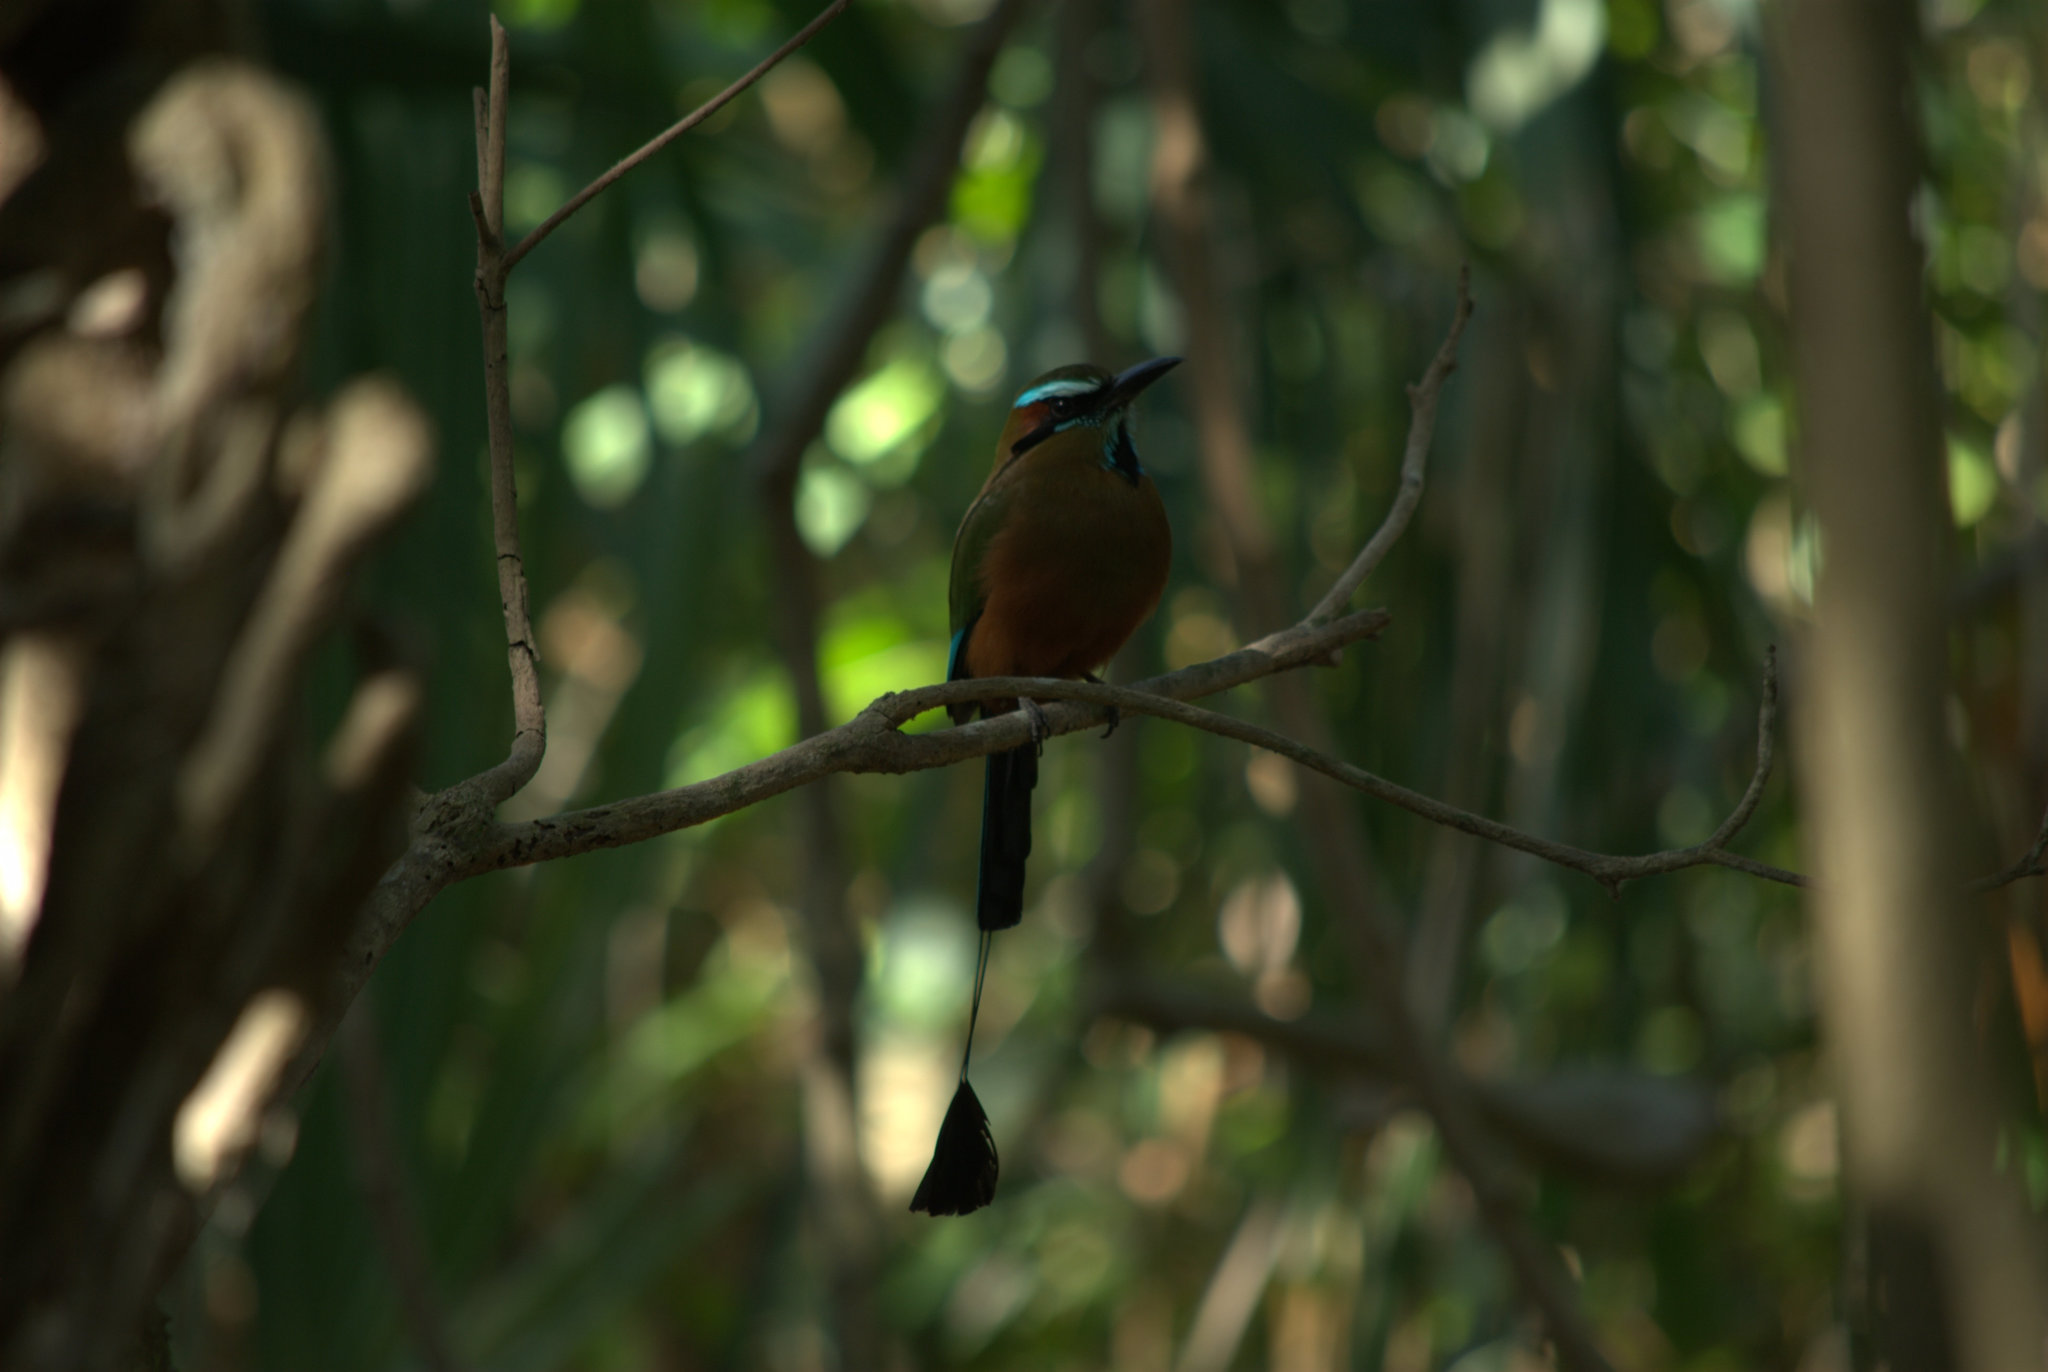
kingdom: Animalia
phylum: Chordata
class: Aves
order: Coraciiformes
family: Momotidae
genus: Eumomota
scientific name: Eumomota superciliosa
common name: Turquoise-browed motmot
